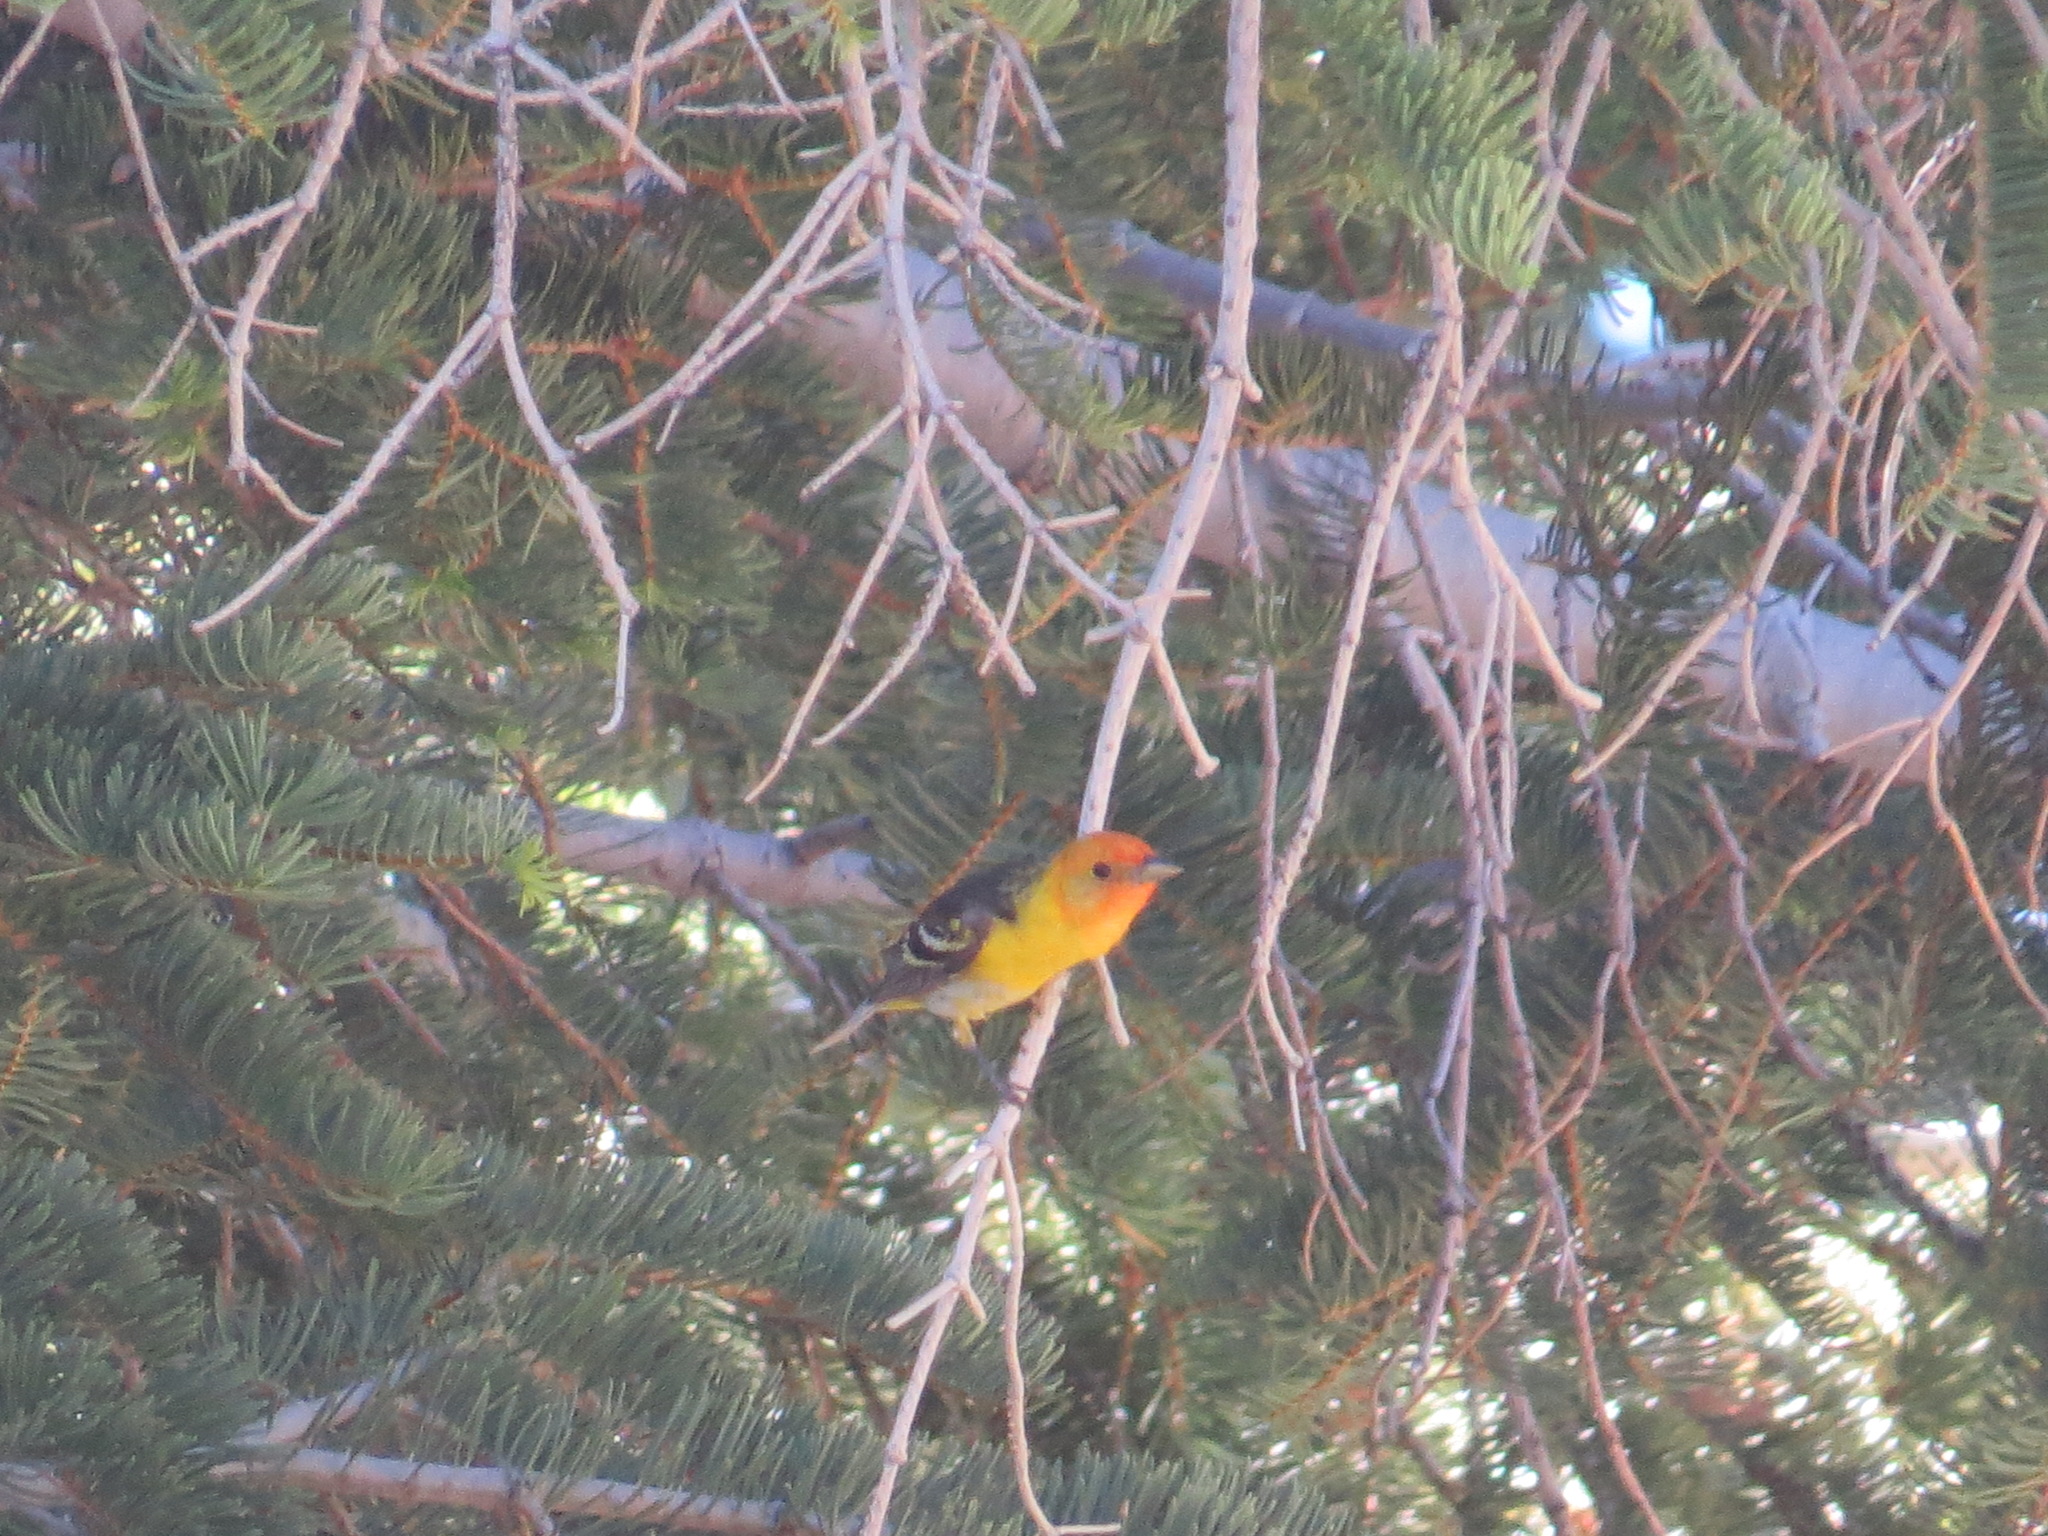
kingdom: Animalia
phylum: Chordata
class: Aves
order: Passeriformes
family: Cardinalidae
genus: Piranga
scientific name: Piranga ludoviciana
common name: Western tanager
